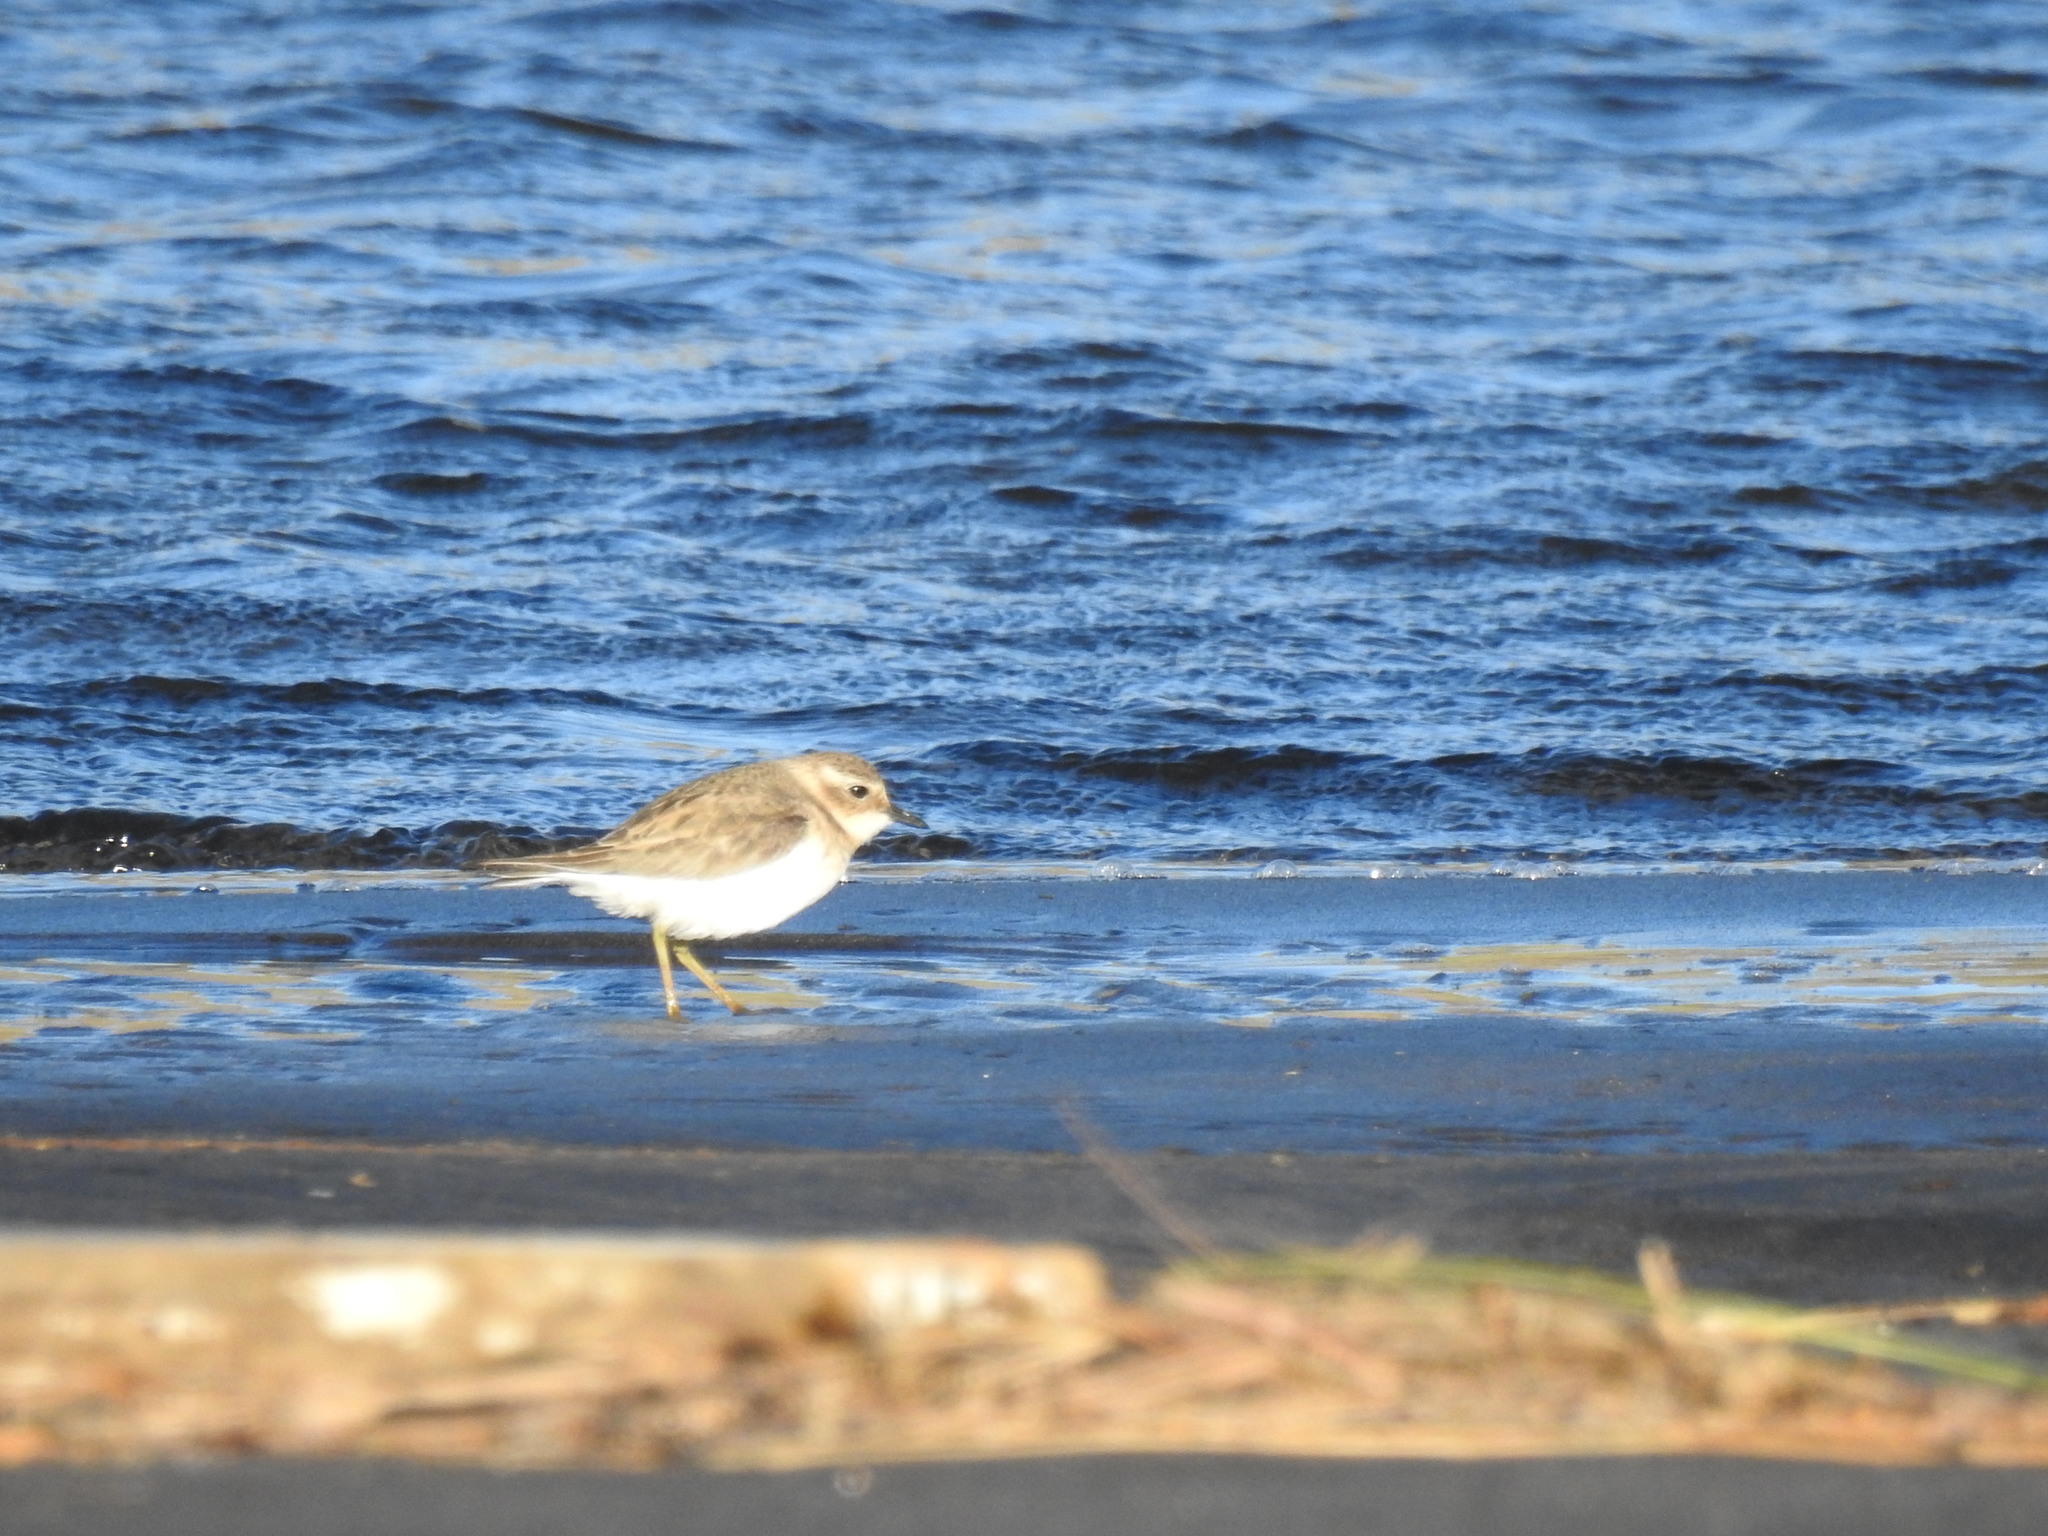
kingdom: Animalia
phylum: Chordata
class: Aves
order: Charadriiformes
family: Charadriidae
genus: Anarhynchus
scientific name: Anarhynchus
